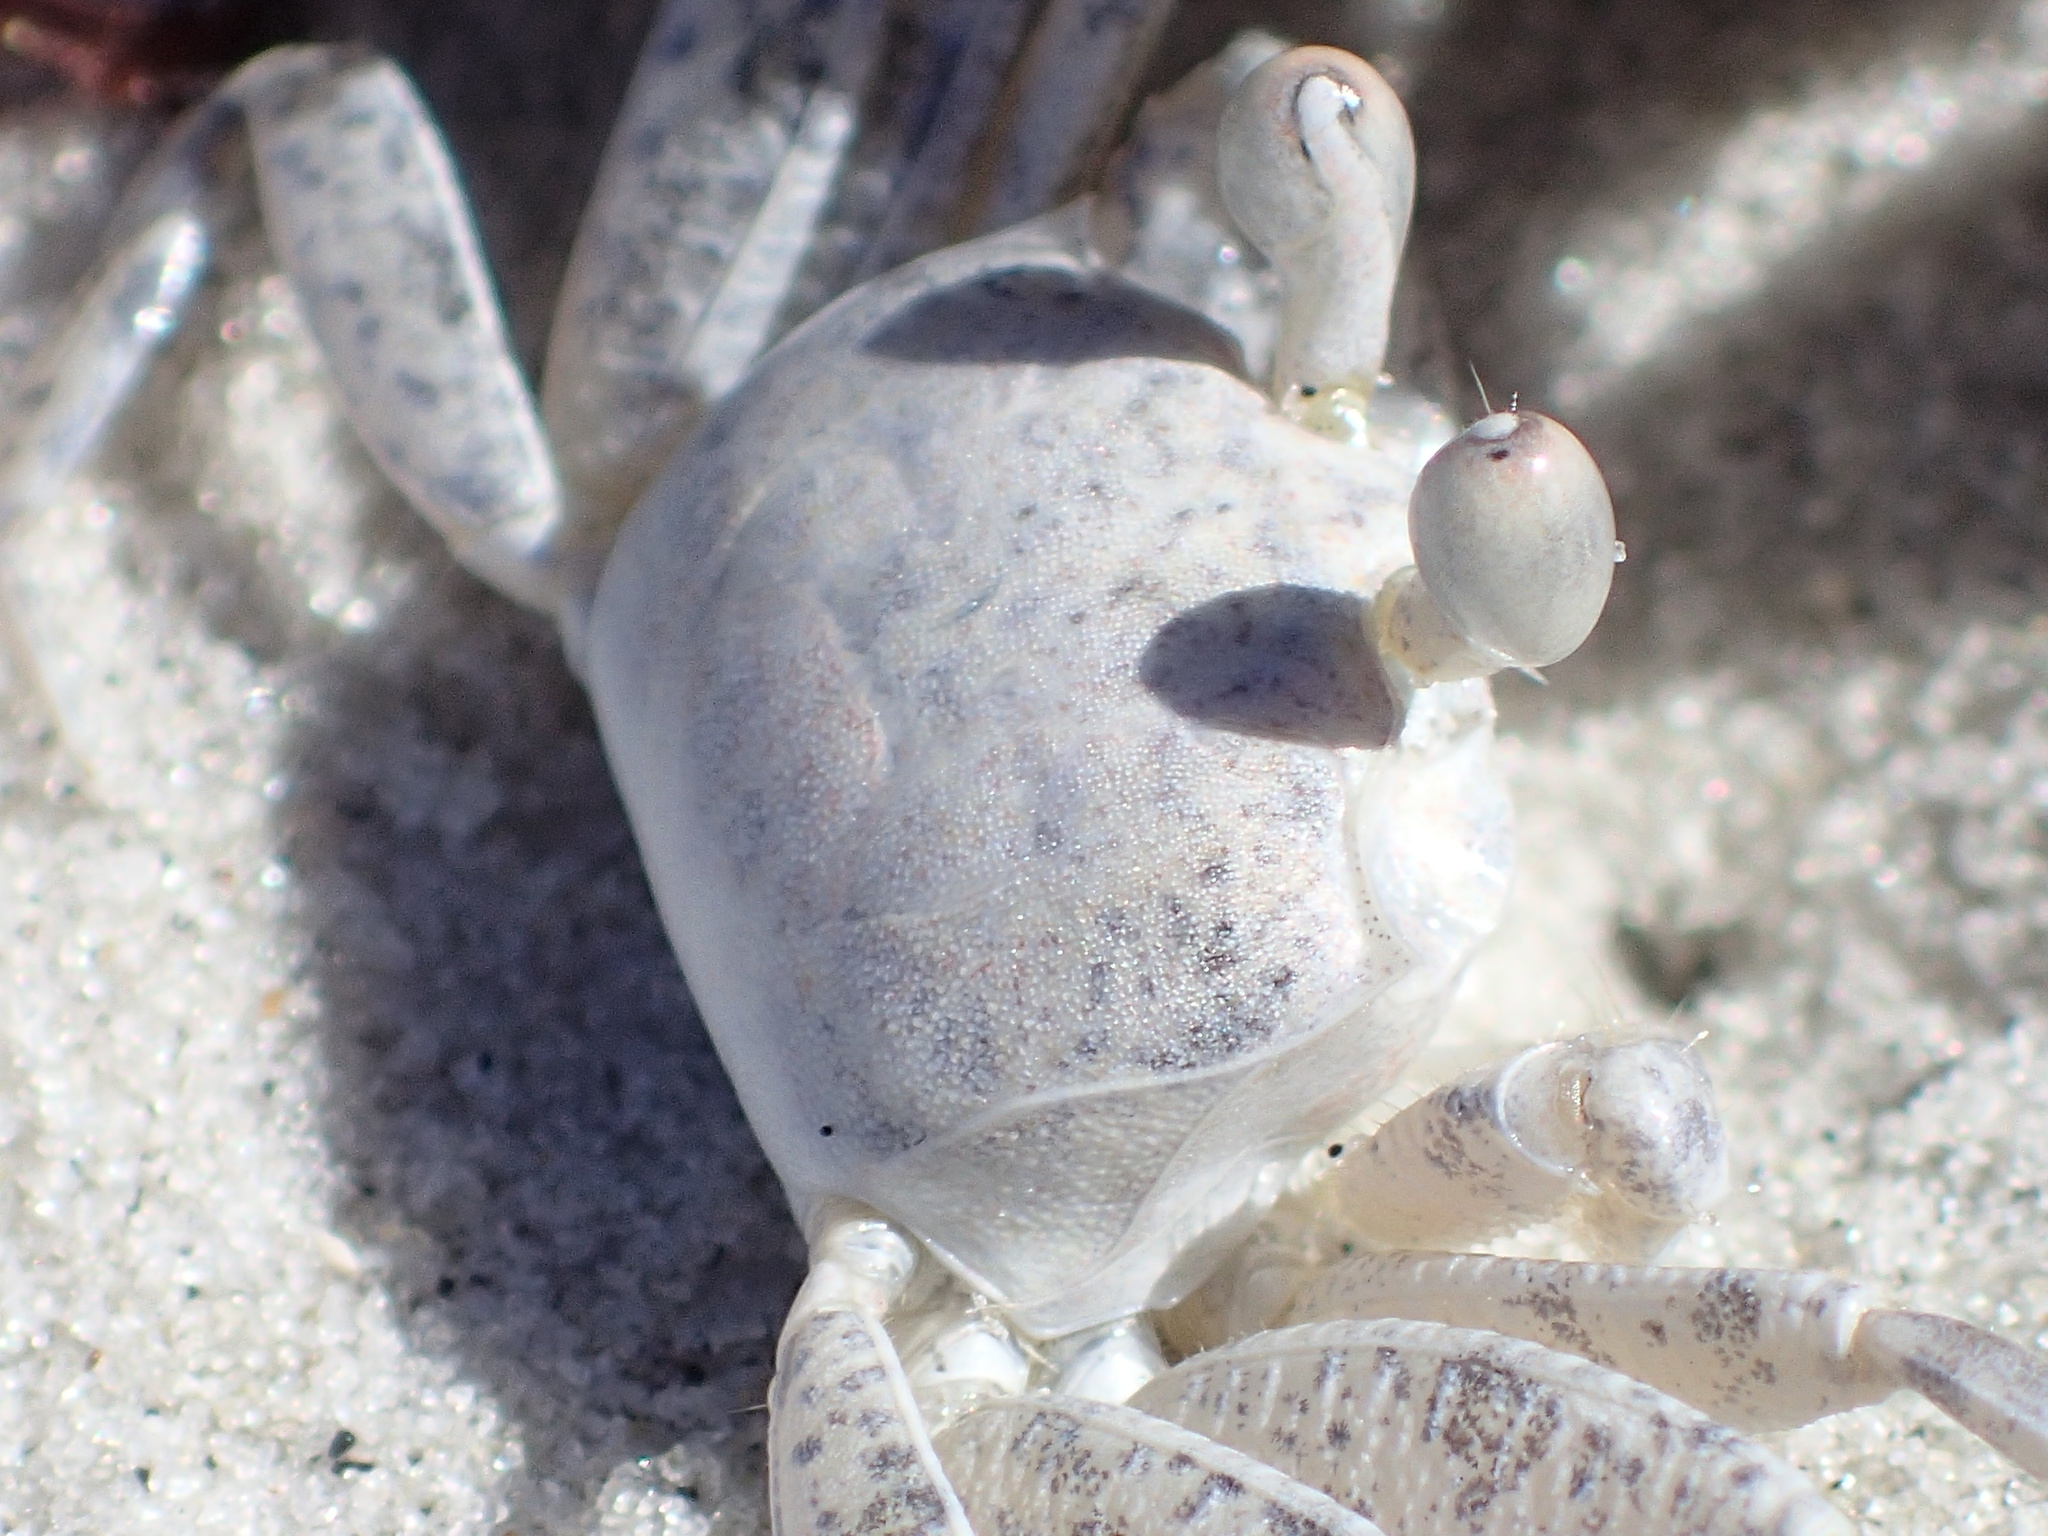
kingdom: Animalia
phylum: Arthropoda
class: Malacostraca
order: Decapoda
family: Ocypodidae
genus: Ocypode
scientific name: Ocypode quadrata
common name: Ghost crab
